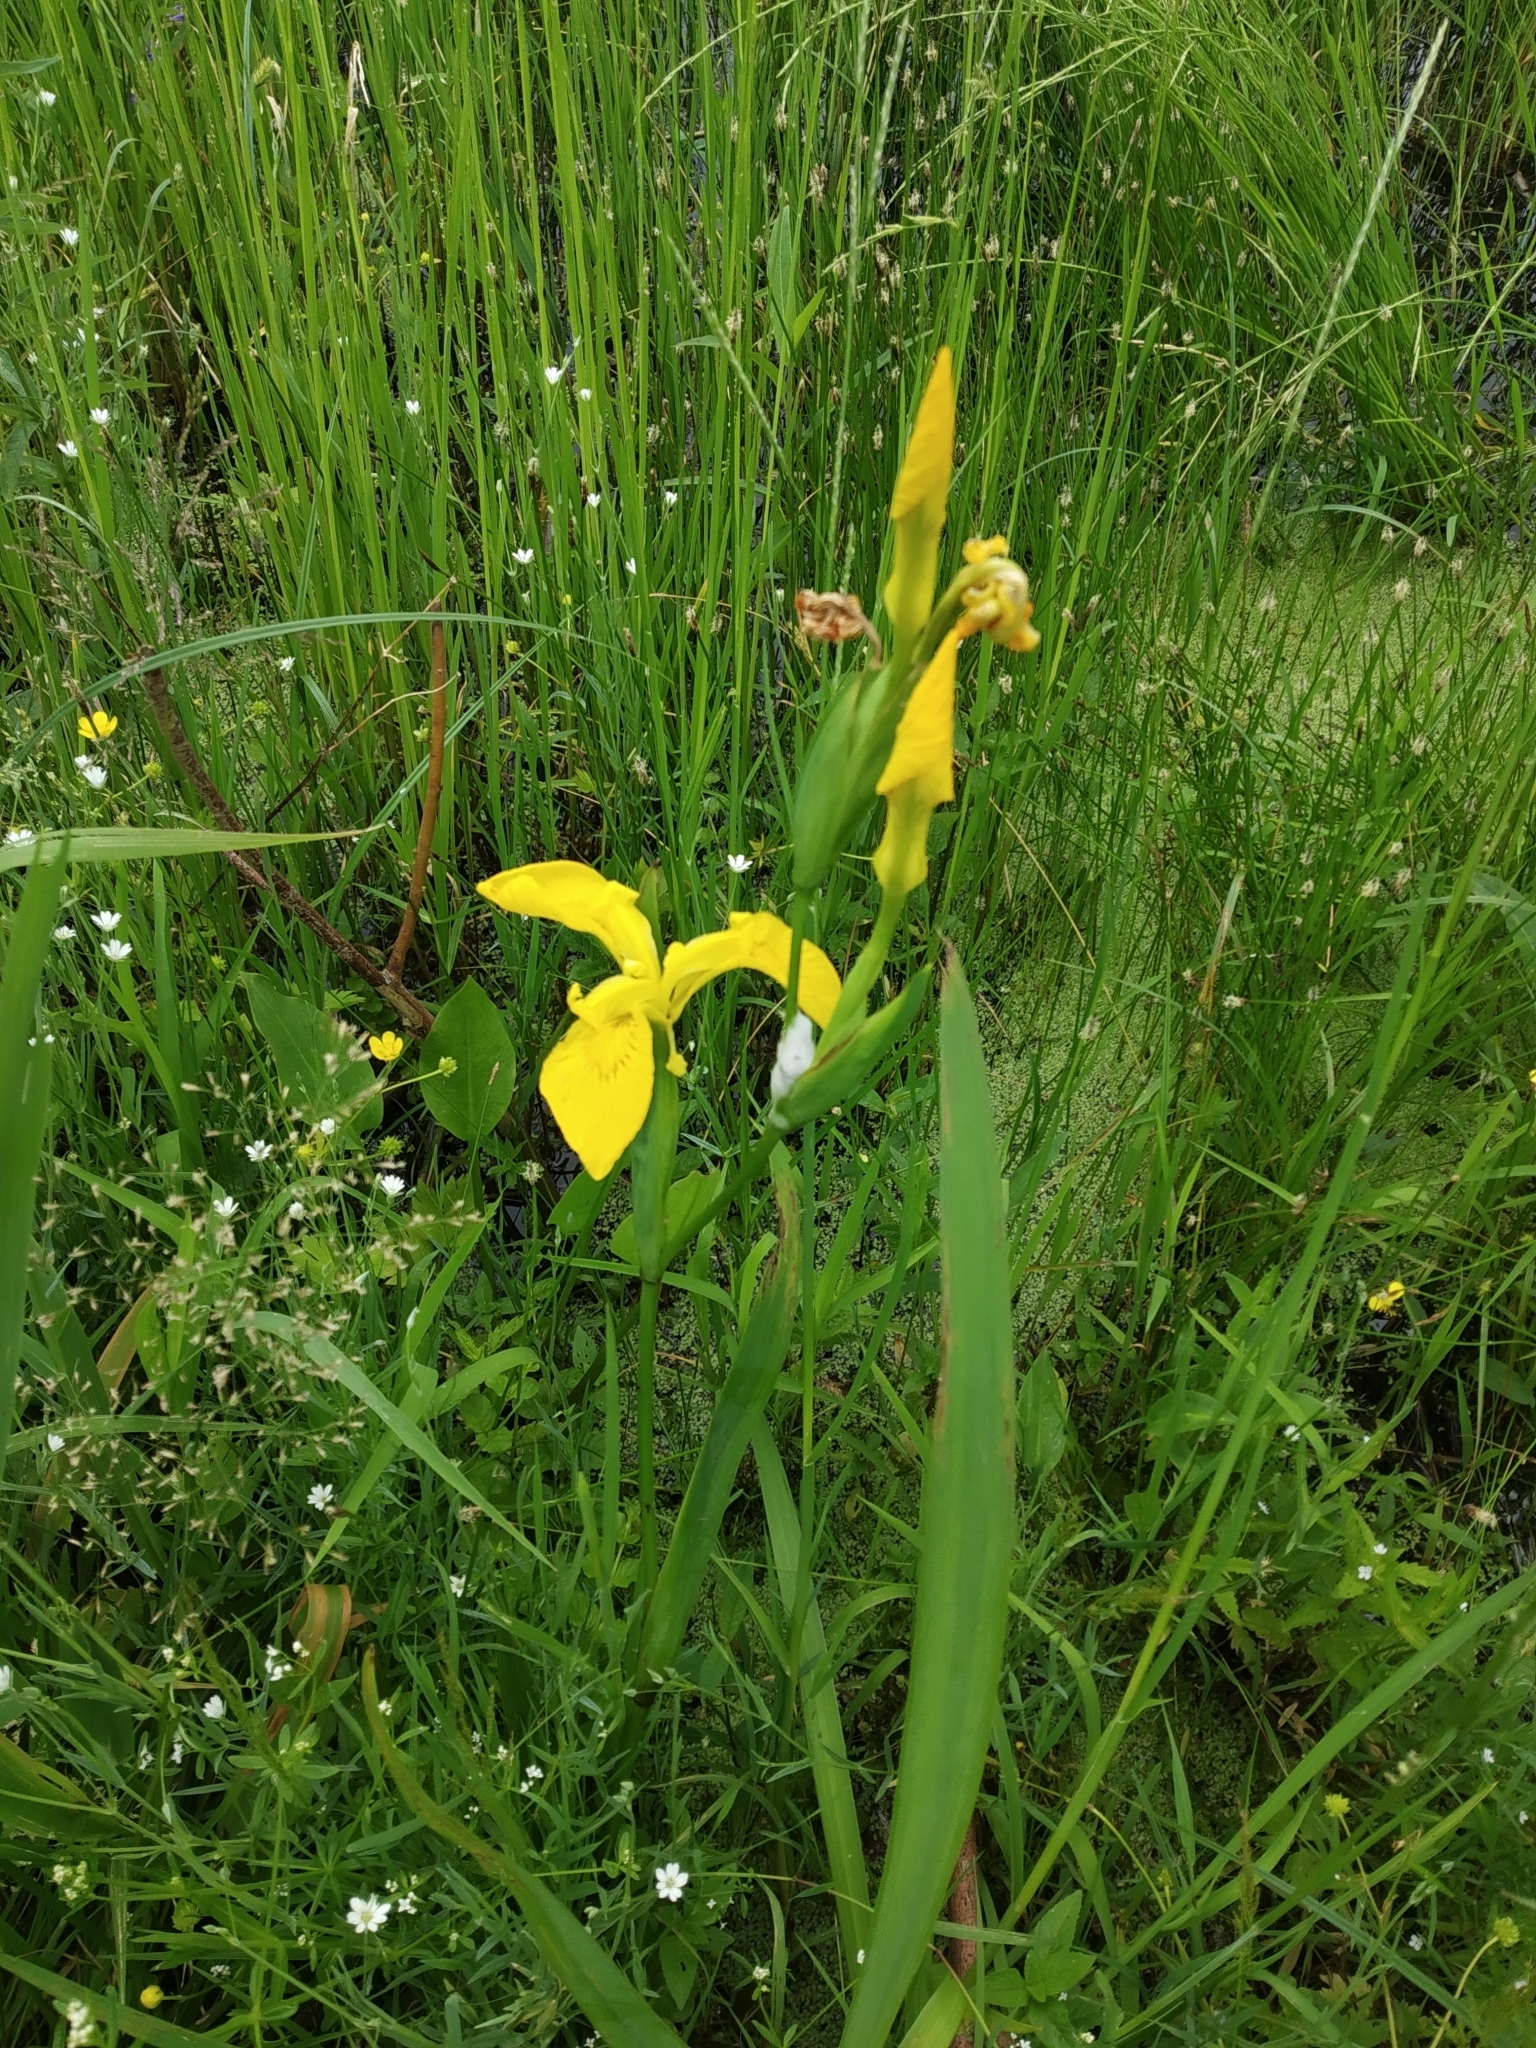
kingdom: Plantae
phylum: Tracheophyta
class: Liliopsida
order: Asparagales
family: Iridaceae
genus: Iris
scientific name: Iris pseudacorus
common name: Yellow flag
